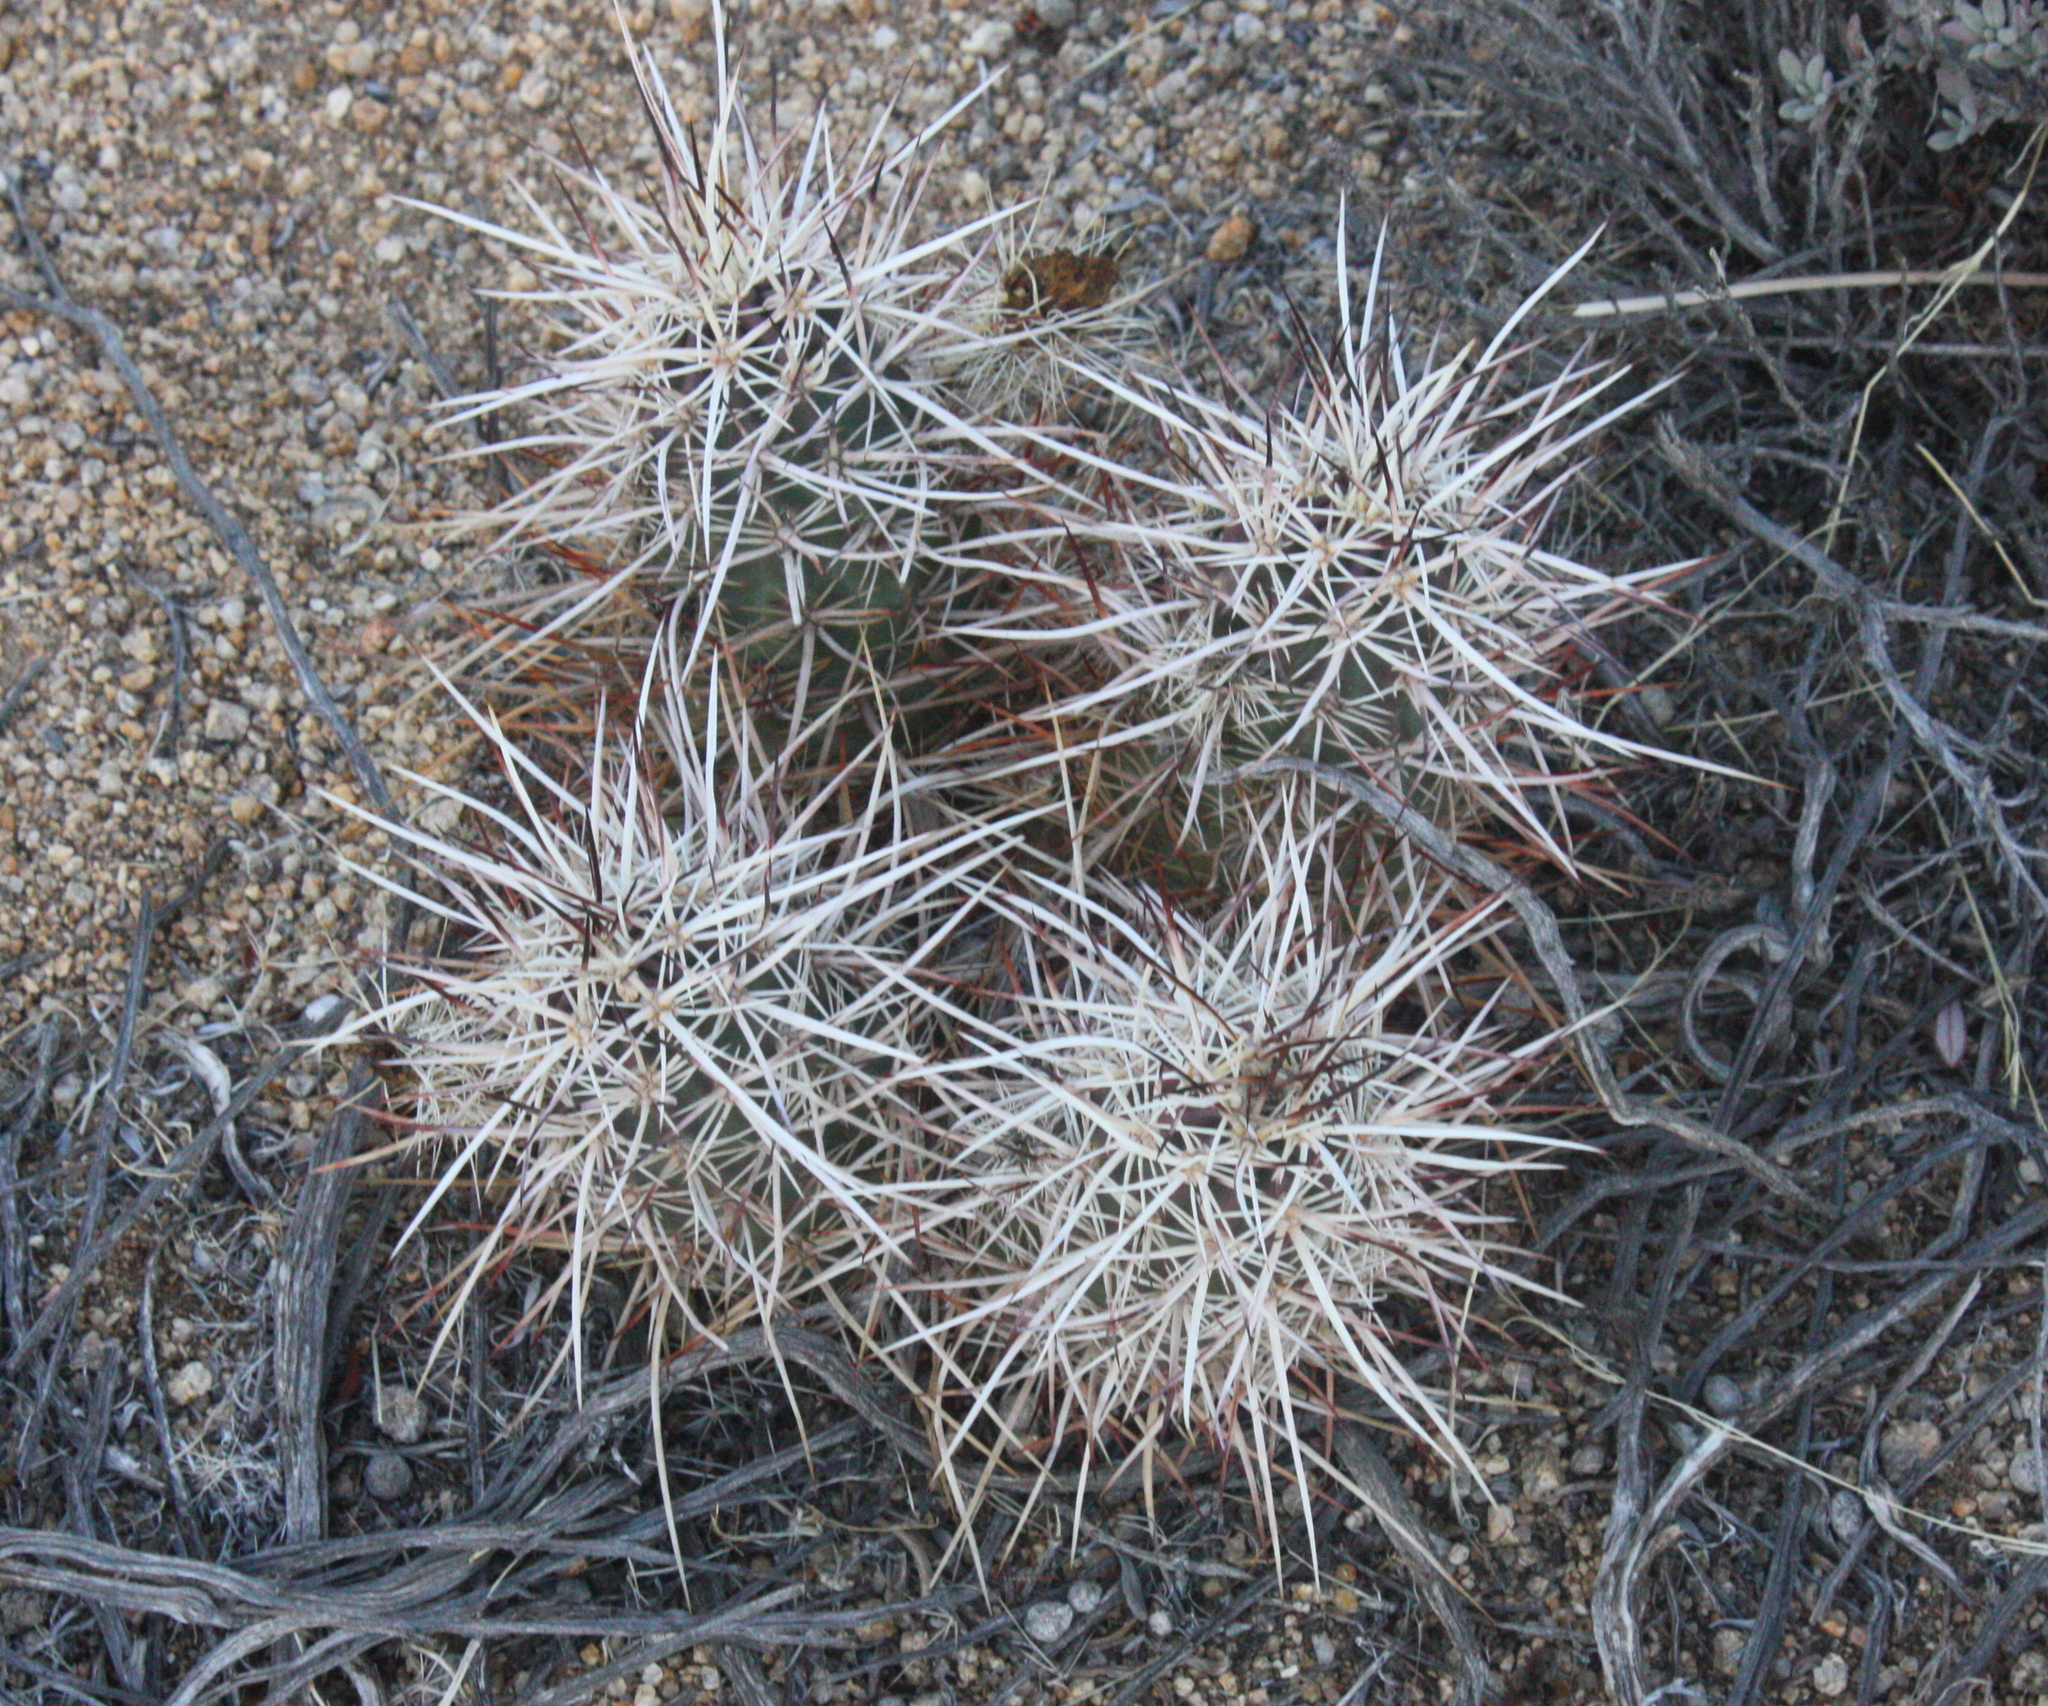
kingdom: Plantae
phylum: Tracheophyta
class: Magnoliopsida
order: Caryophyllales
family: Cactaceae
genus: Echinocereus
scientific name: Echinocereus engelmannii
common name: Engelmann's hedgehog cactus
